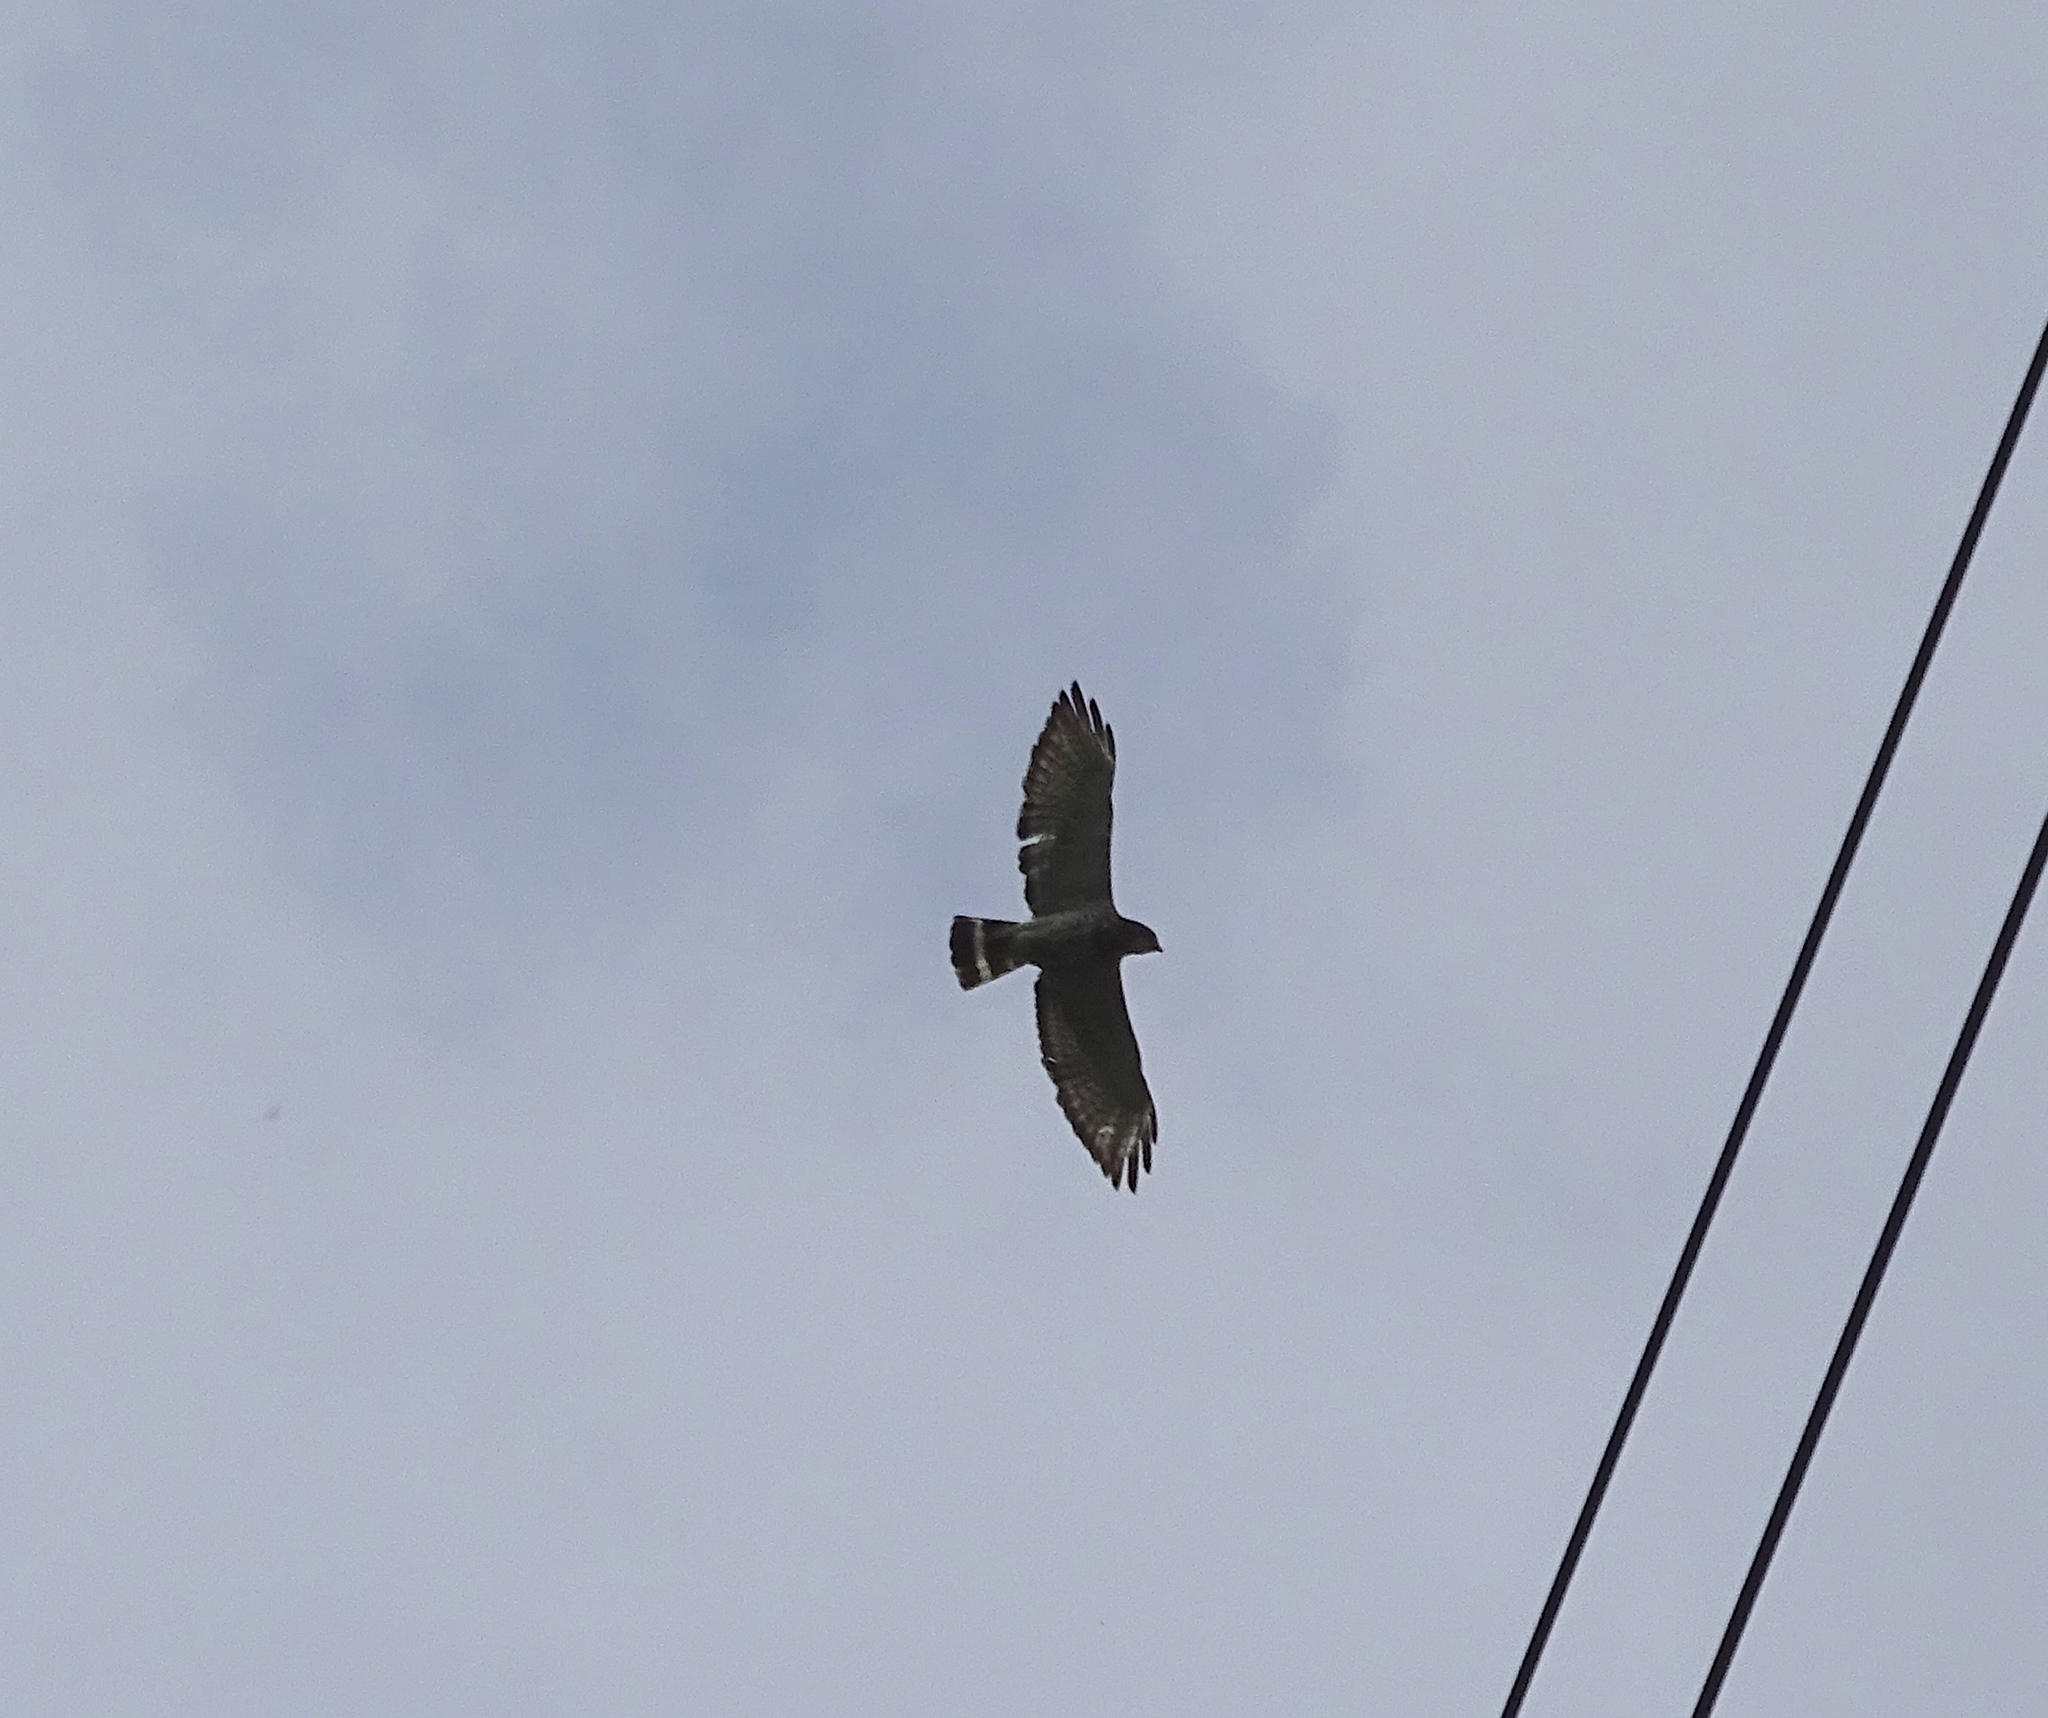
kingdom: Animalia
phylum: Chordata
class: Aves
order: Accipitriformes
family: Accipitridae
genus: Buteo
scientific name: Buteo platypterus
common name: Broad-winged hawk
